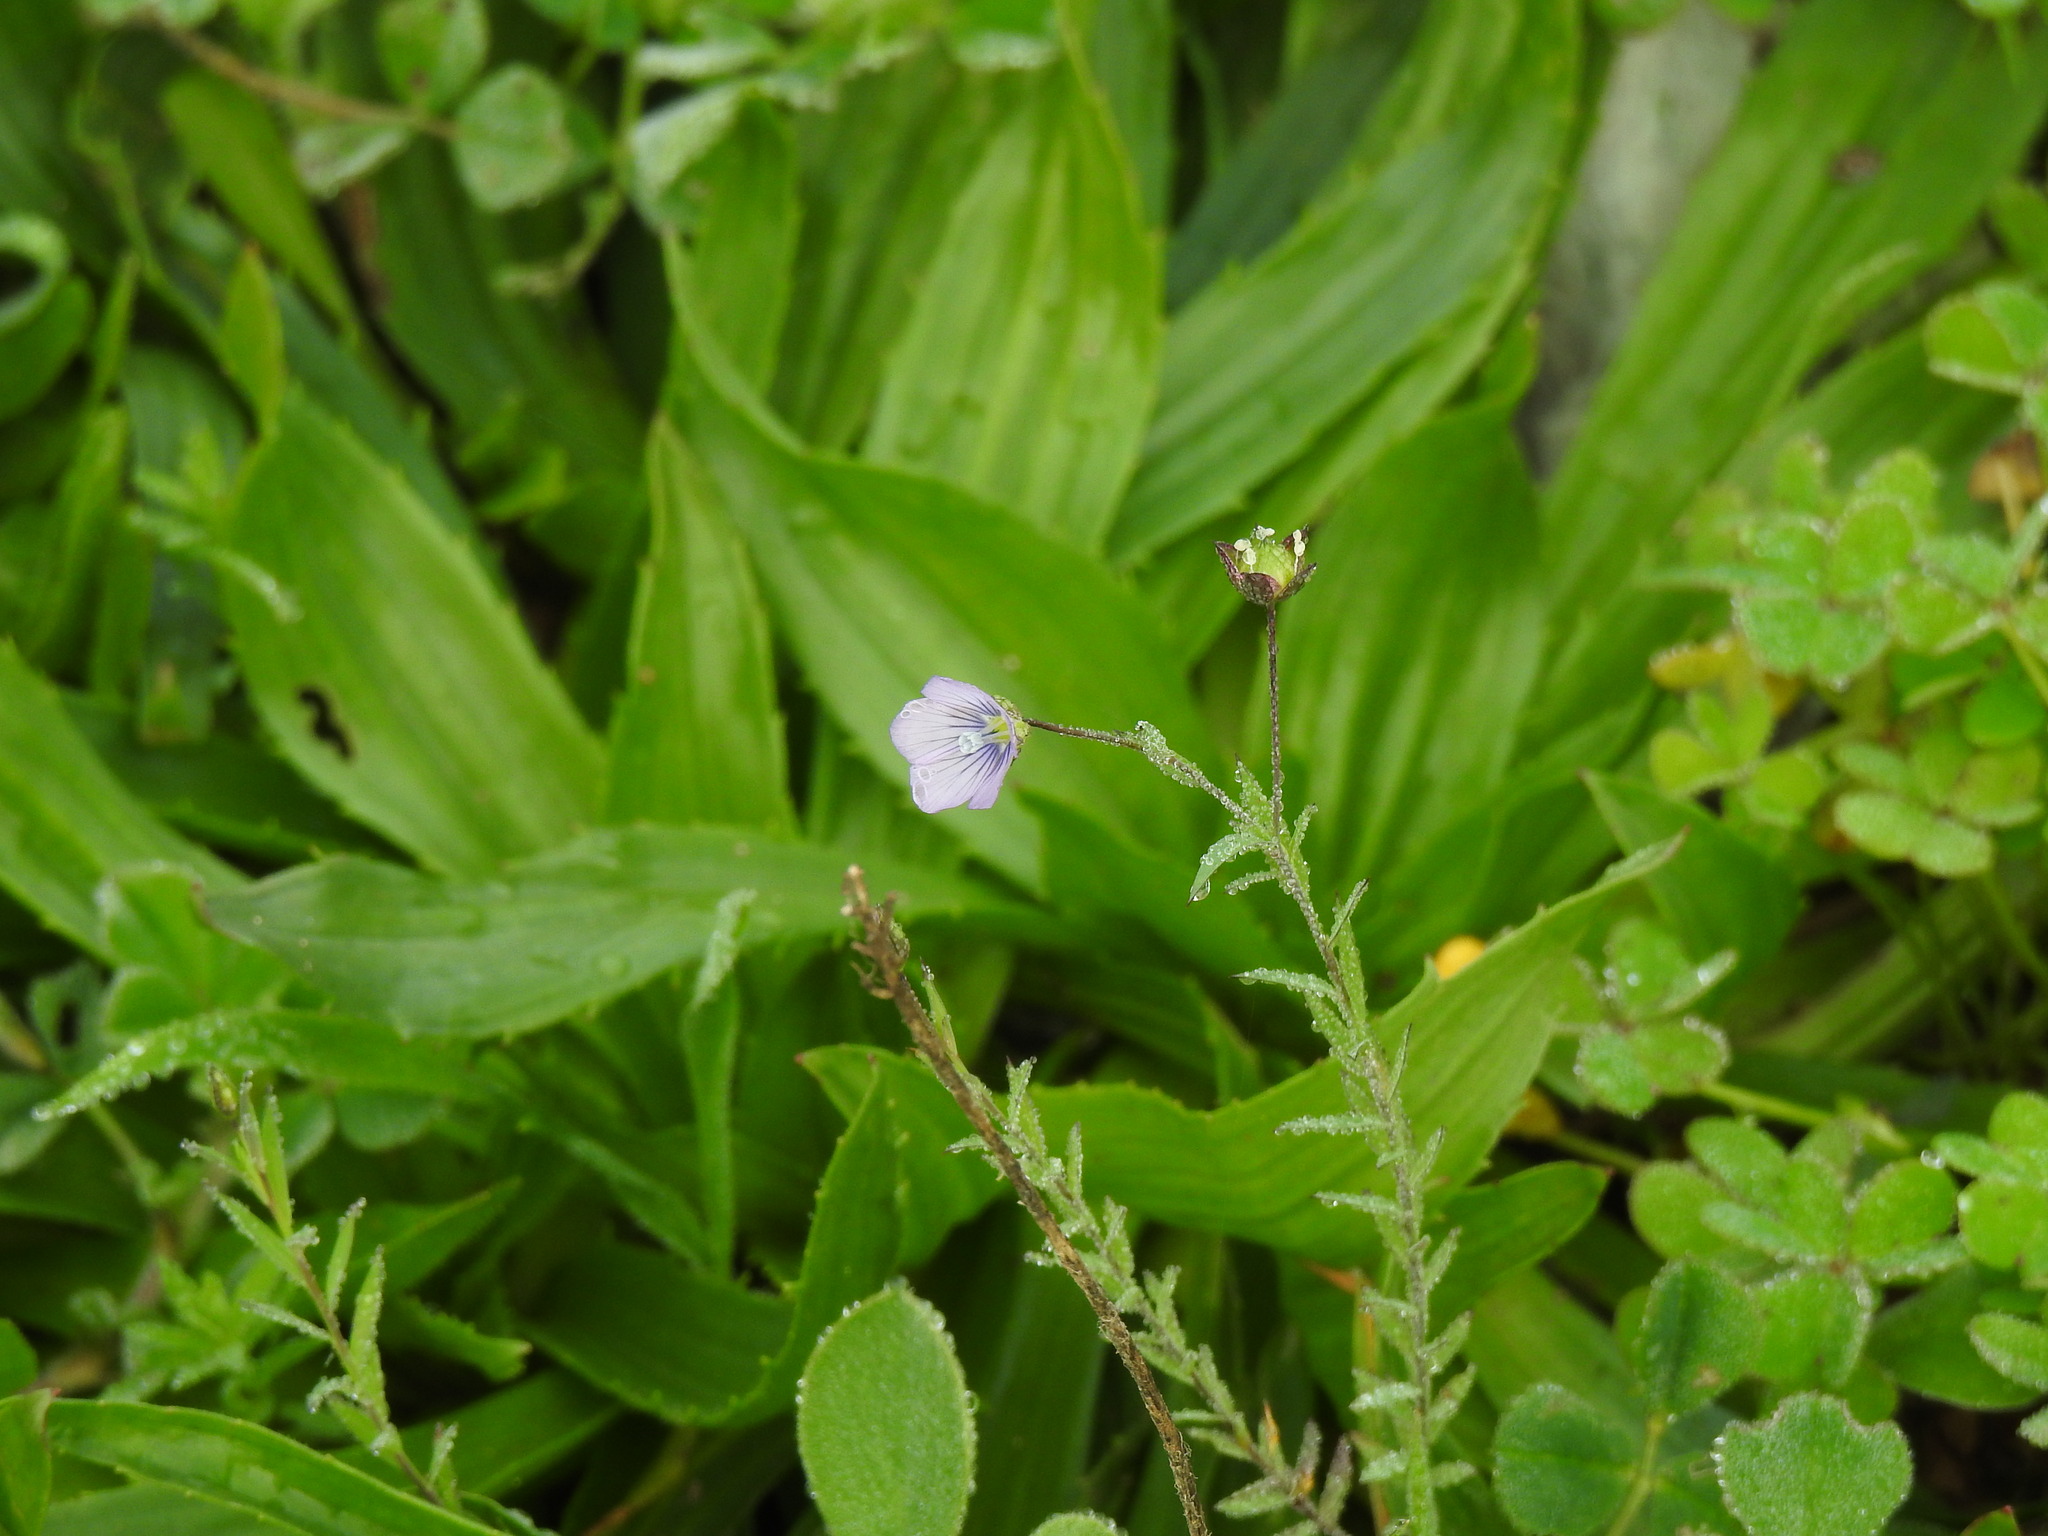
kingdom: Plantae
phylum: Tracheophyta
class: Magnoliopsida
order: Malpighiales
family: Linaceae
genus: Linum
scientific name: Linum bienne
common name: Pale flax
